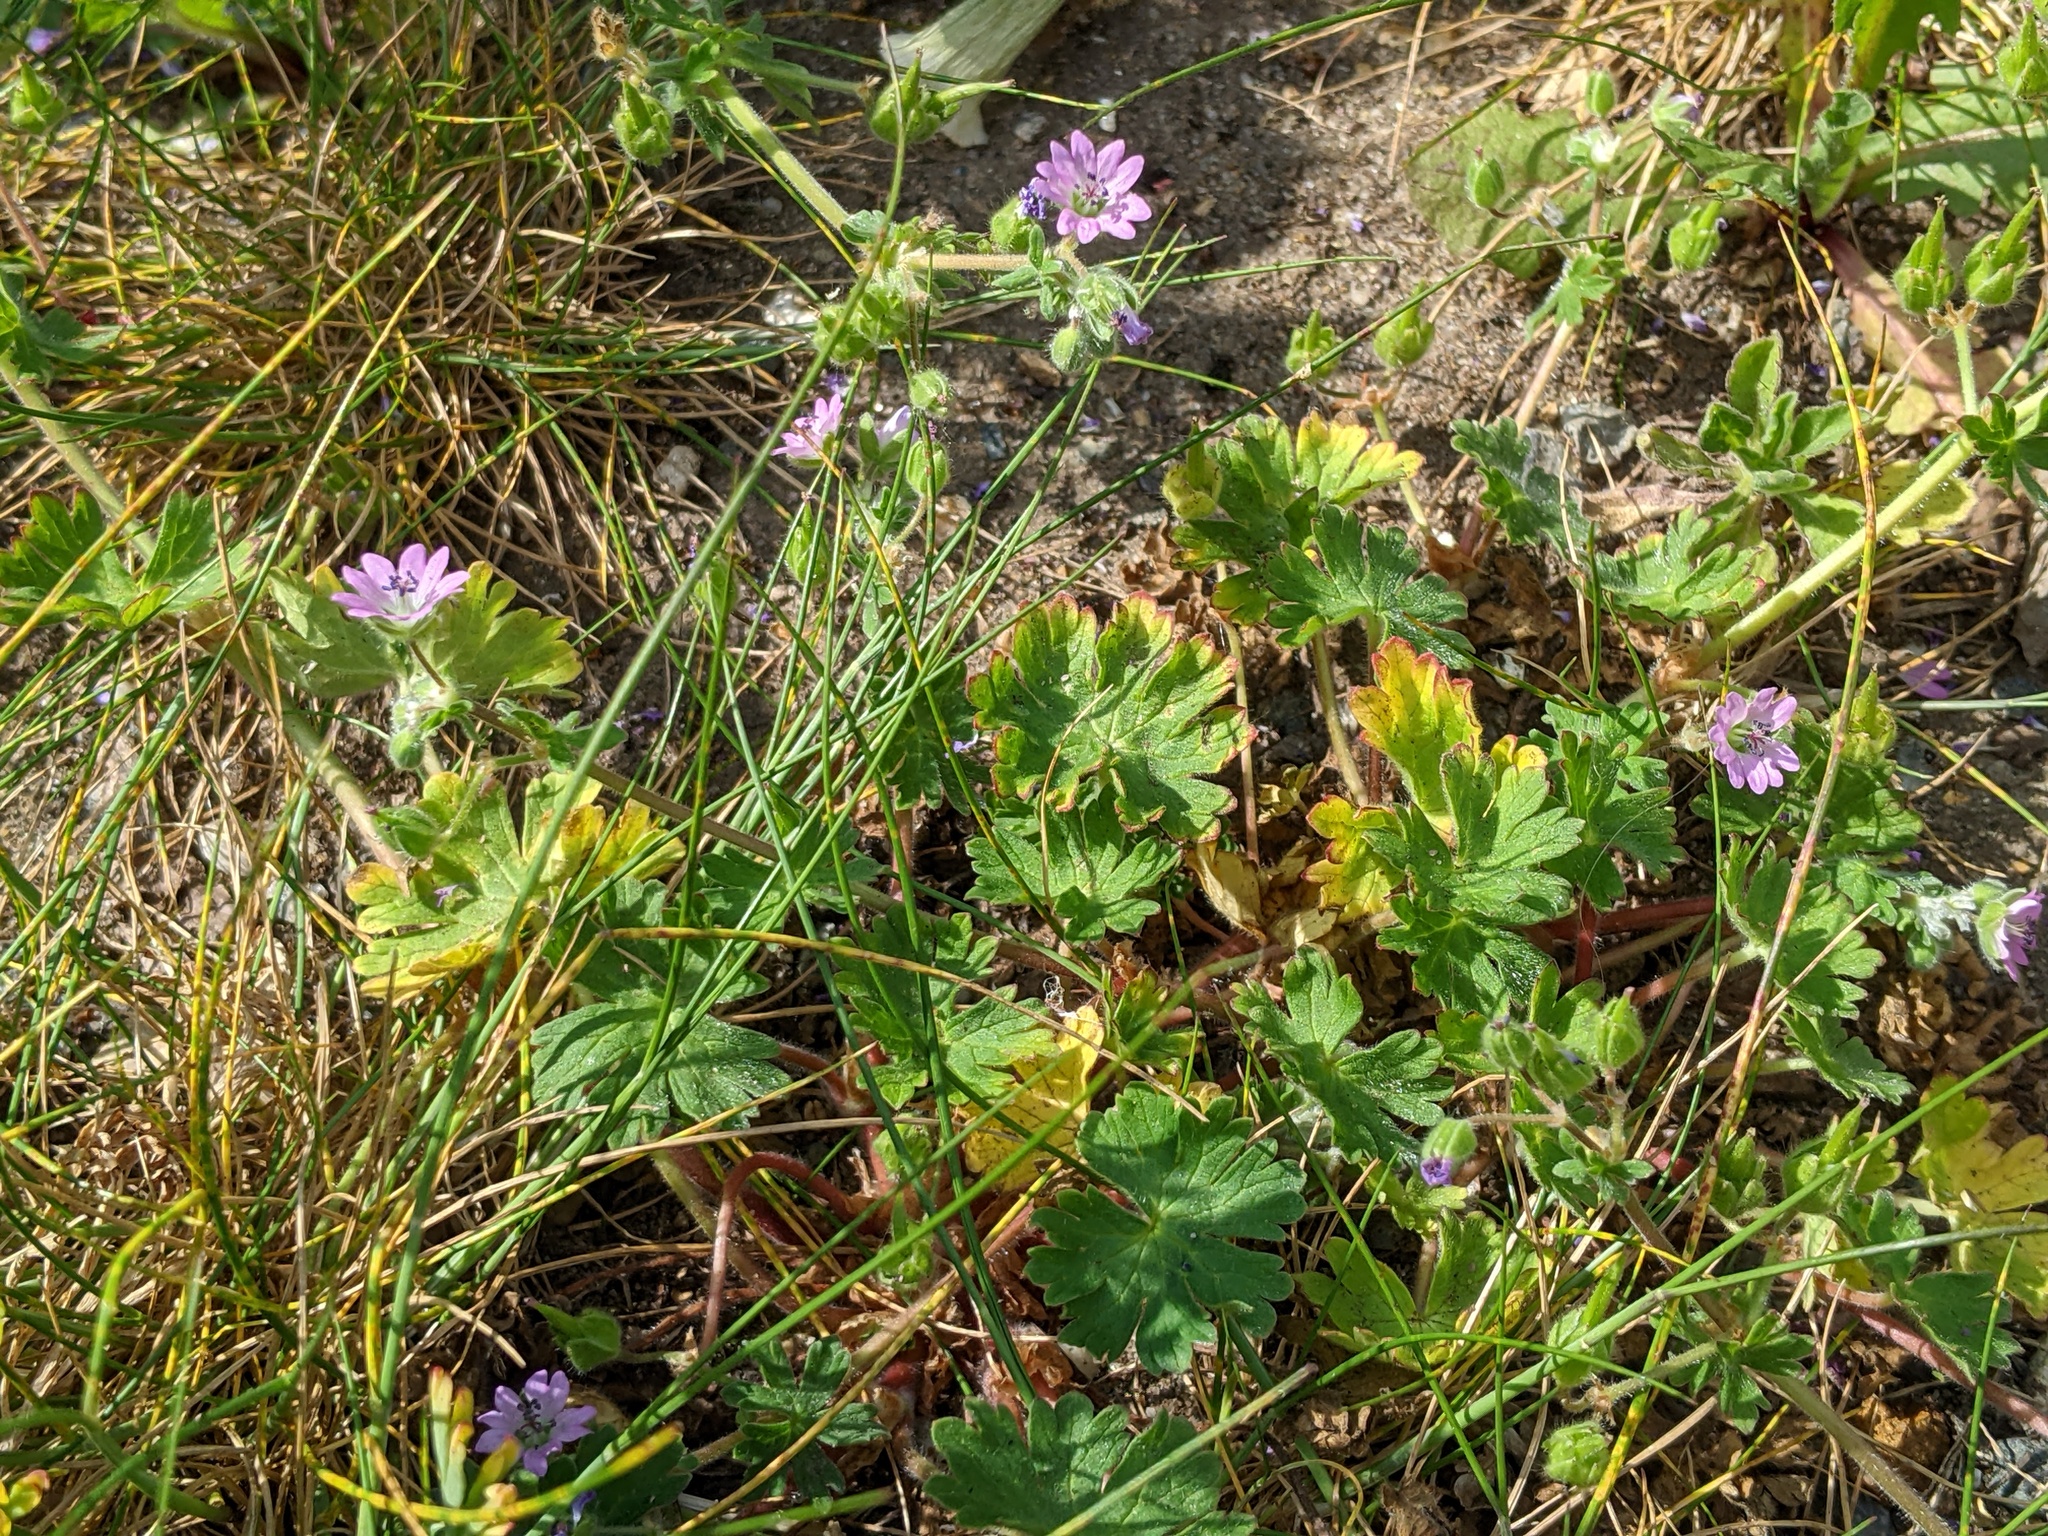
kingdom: Plantae
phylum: Tracheophyta
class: Magnoliopsida
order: Geraniales
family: Geraniaceae
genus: Geranium
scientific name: Geranium molle
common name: Dove's-foot crane's-bill
